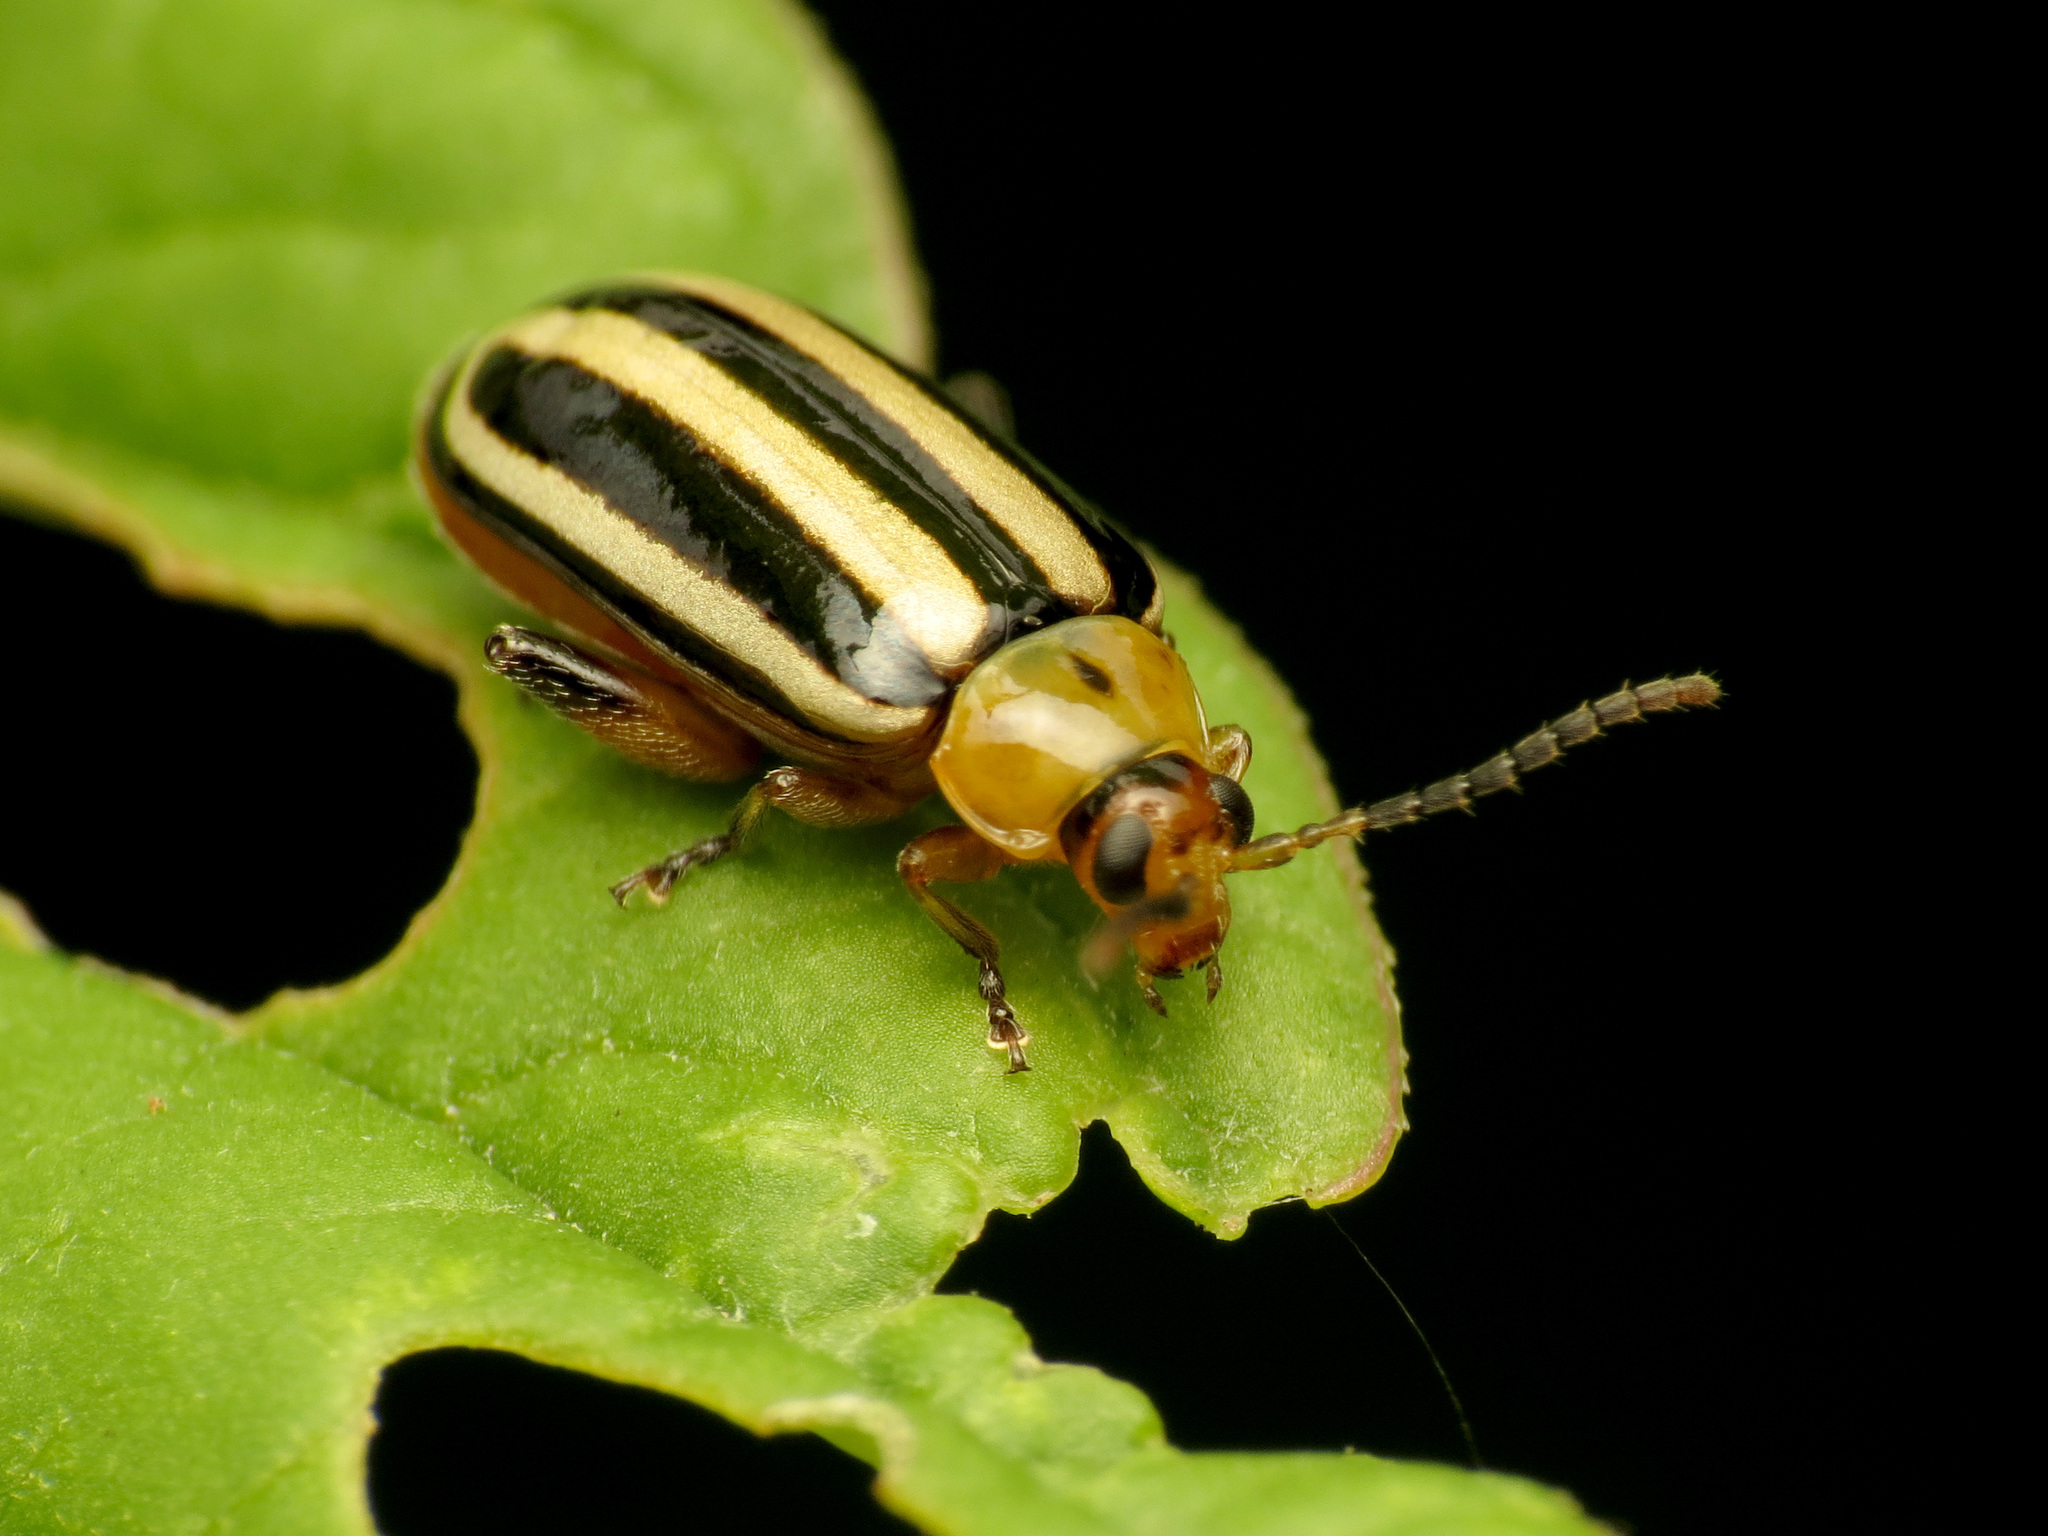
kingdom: Animalia
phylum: Arthropoda
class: Insecta
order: Coleoptera
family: Chrysomelidae
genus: Disonycha
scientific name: Disonycha glabrata
